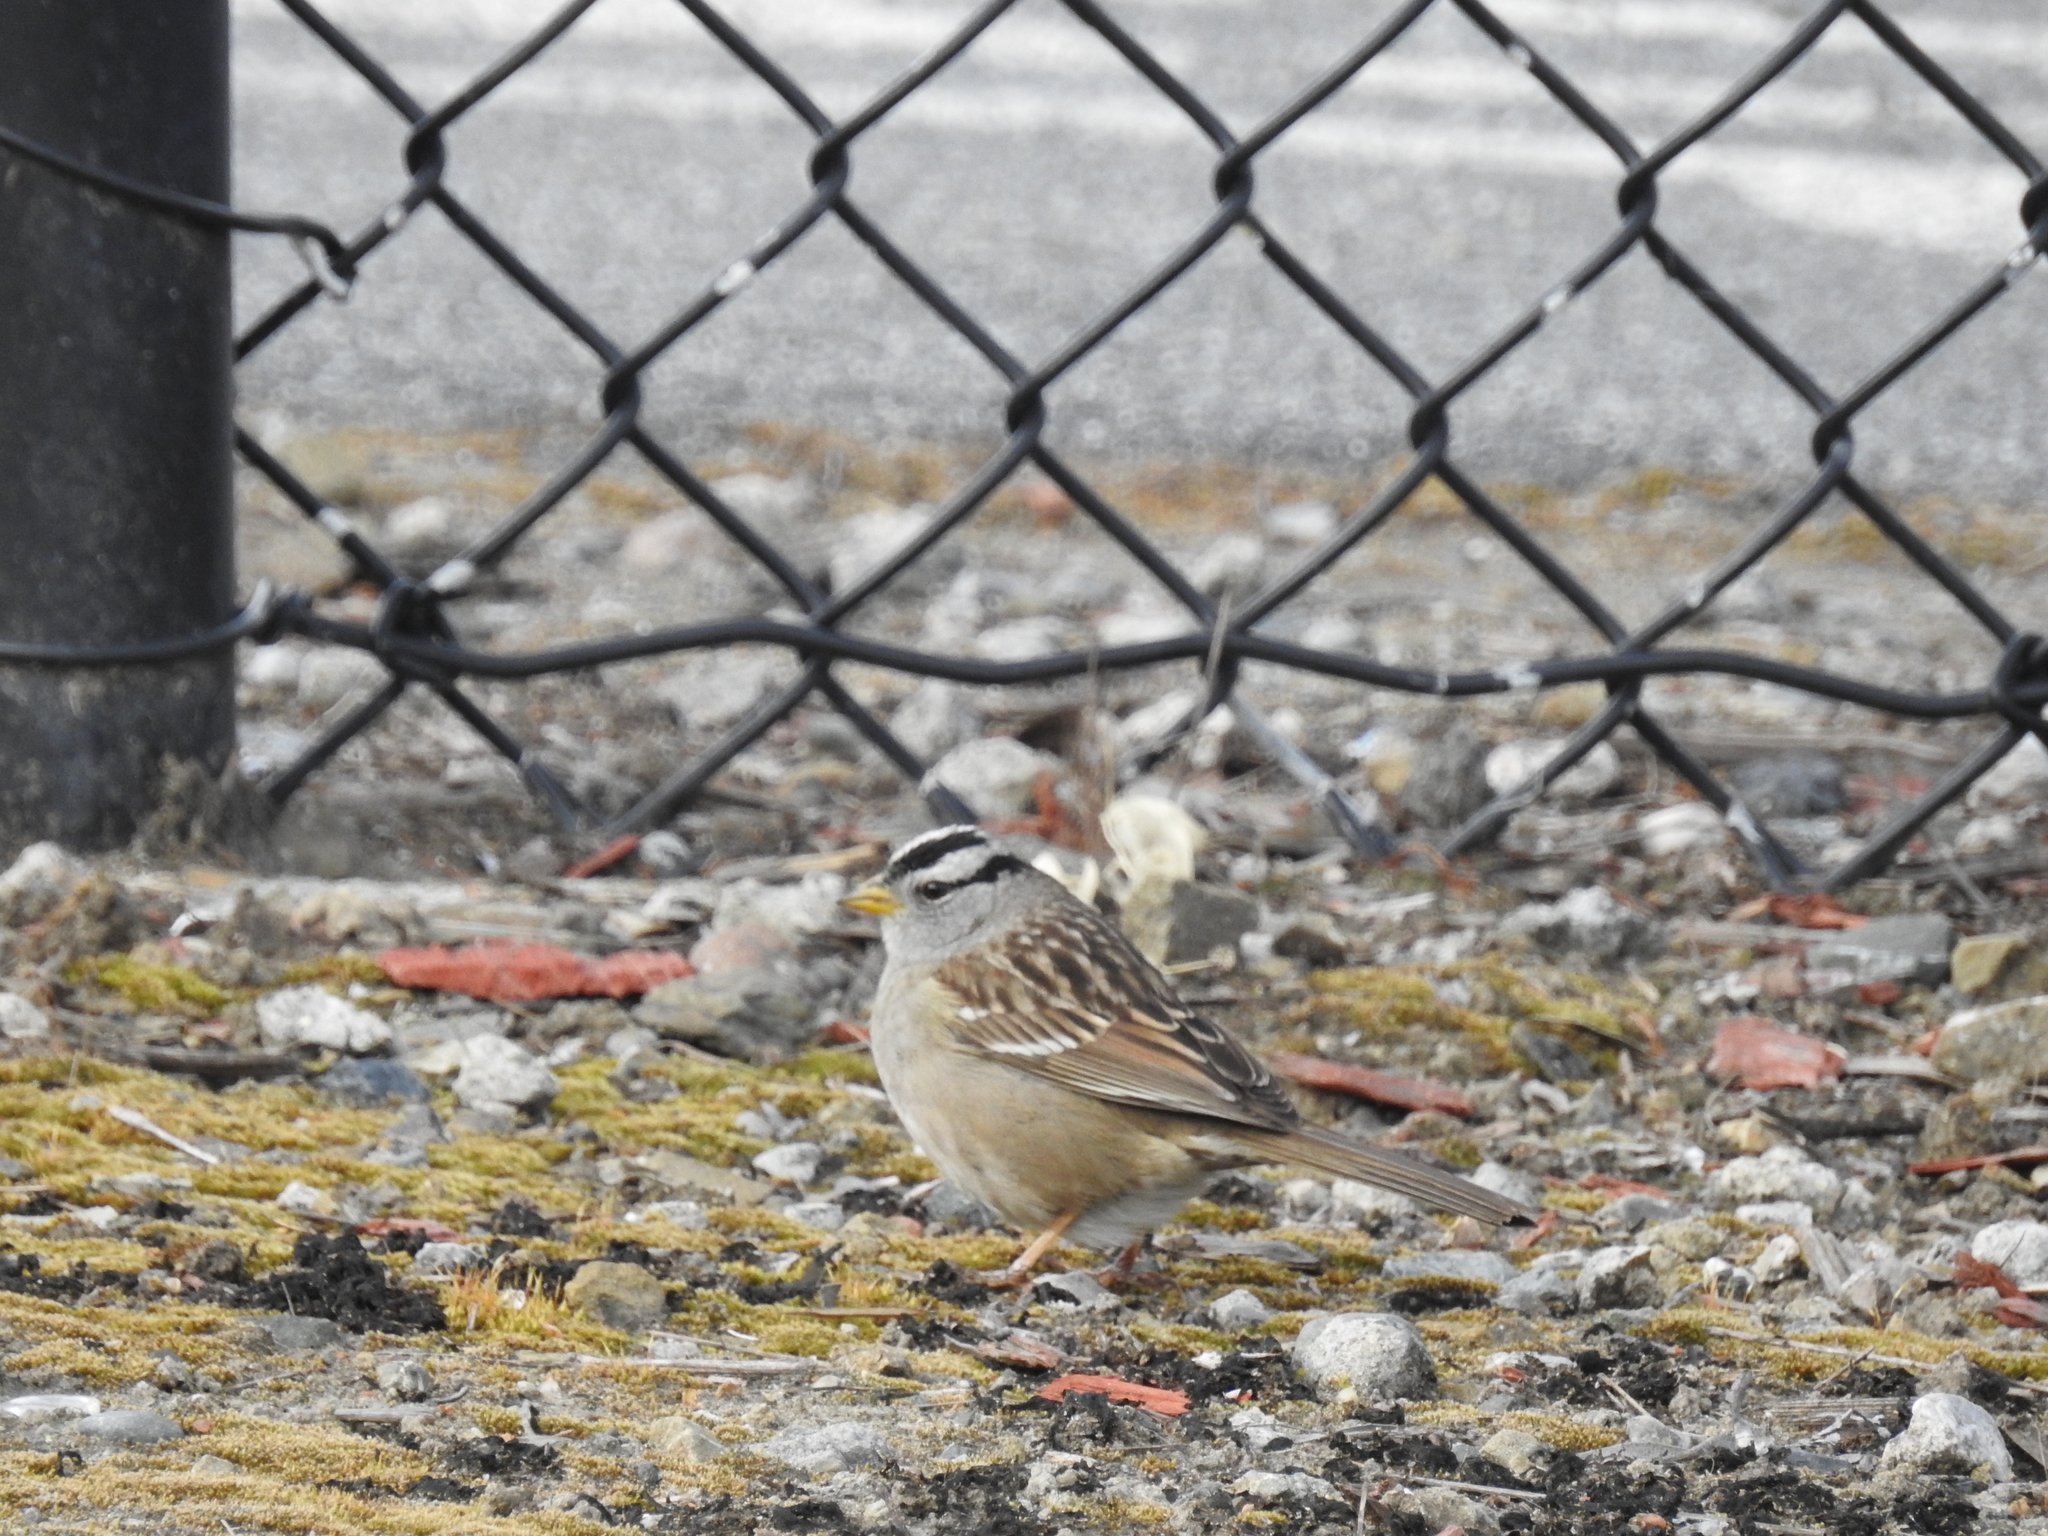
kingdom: Animalia
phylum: Chordata
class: Aves
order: Passeriformes
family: Passerellidae
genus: Zonotrichia
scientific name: Zonotrichia leucophrys
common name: White-crowned sparrow
